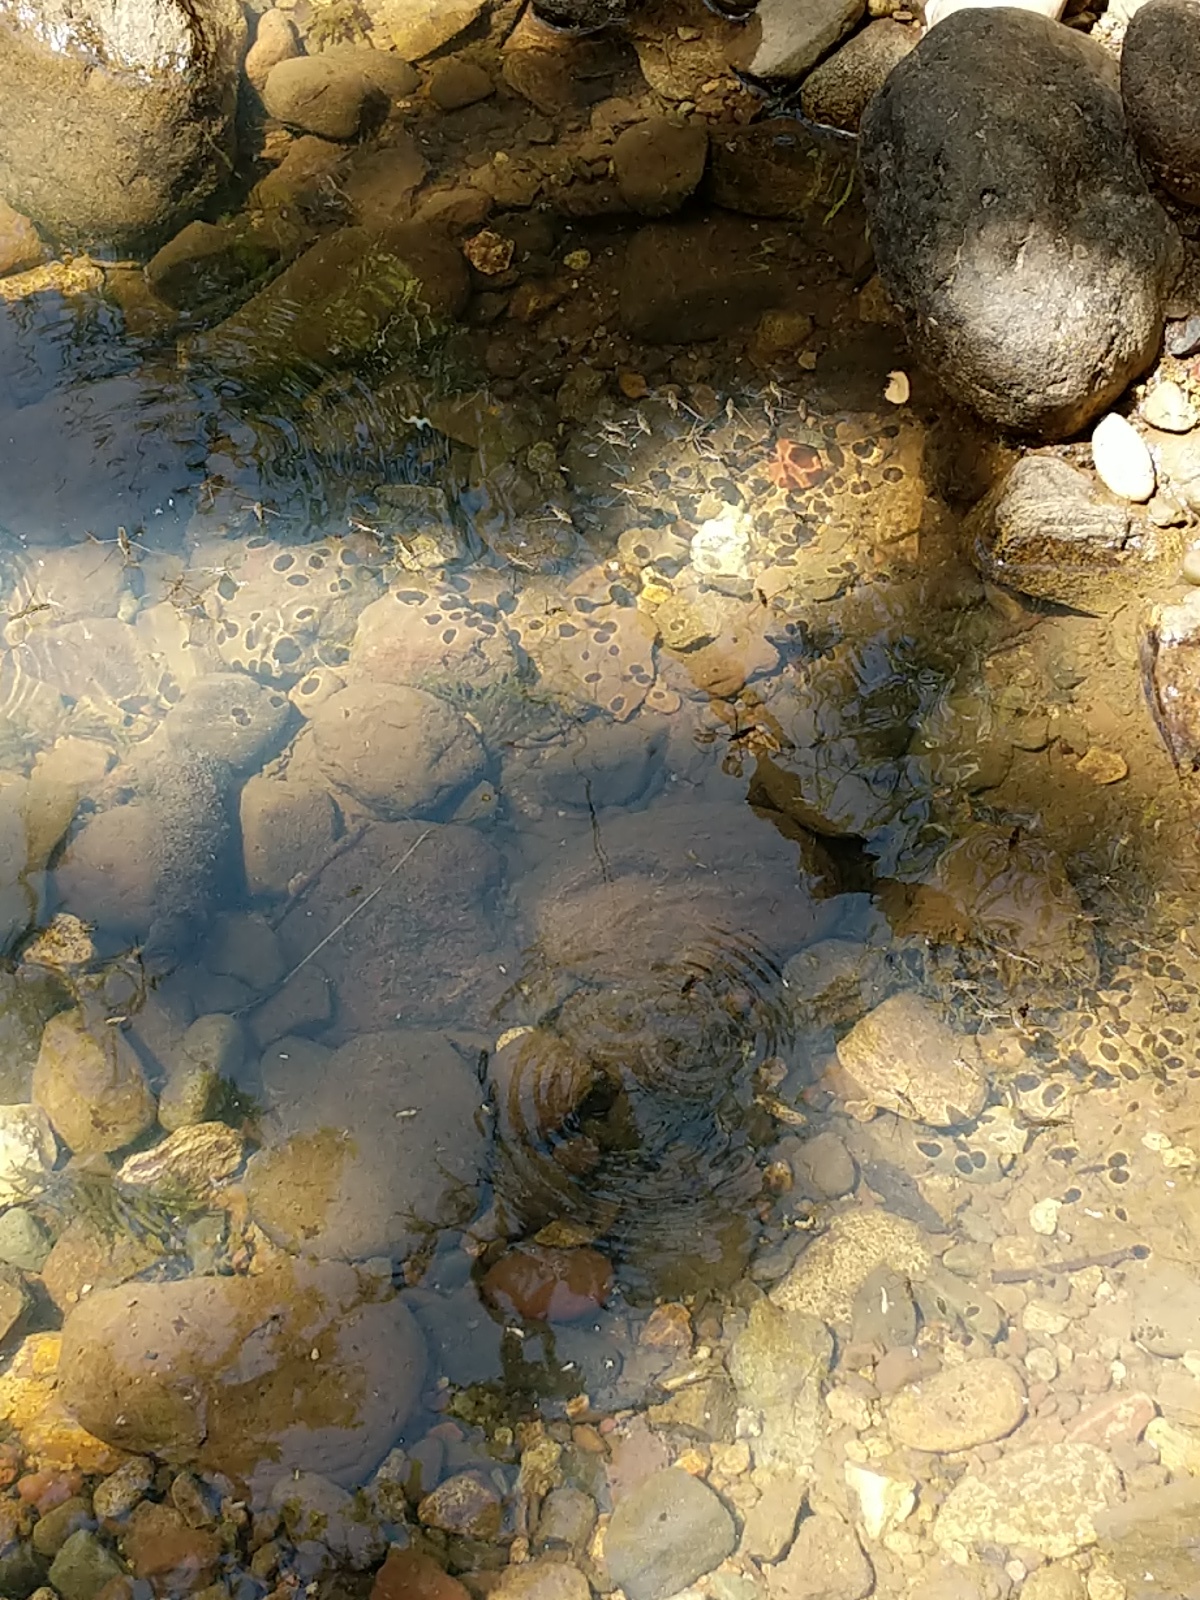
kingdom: Animalia
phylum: Arthropoda
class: Insecta
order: Hemiptera
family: Gerridae
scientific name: Gerridae
